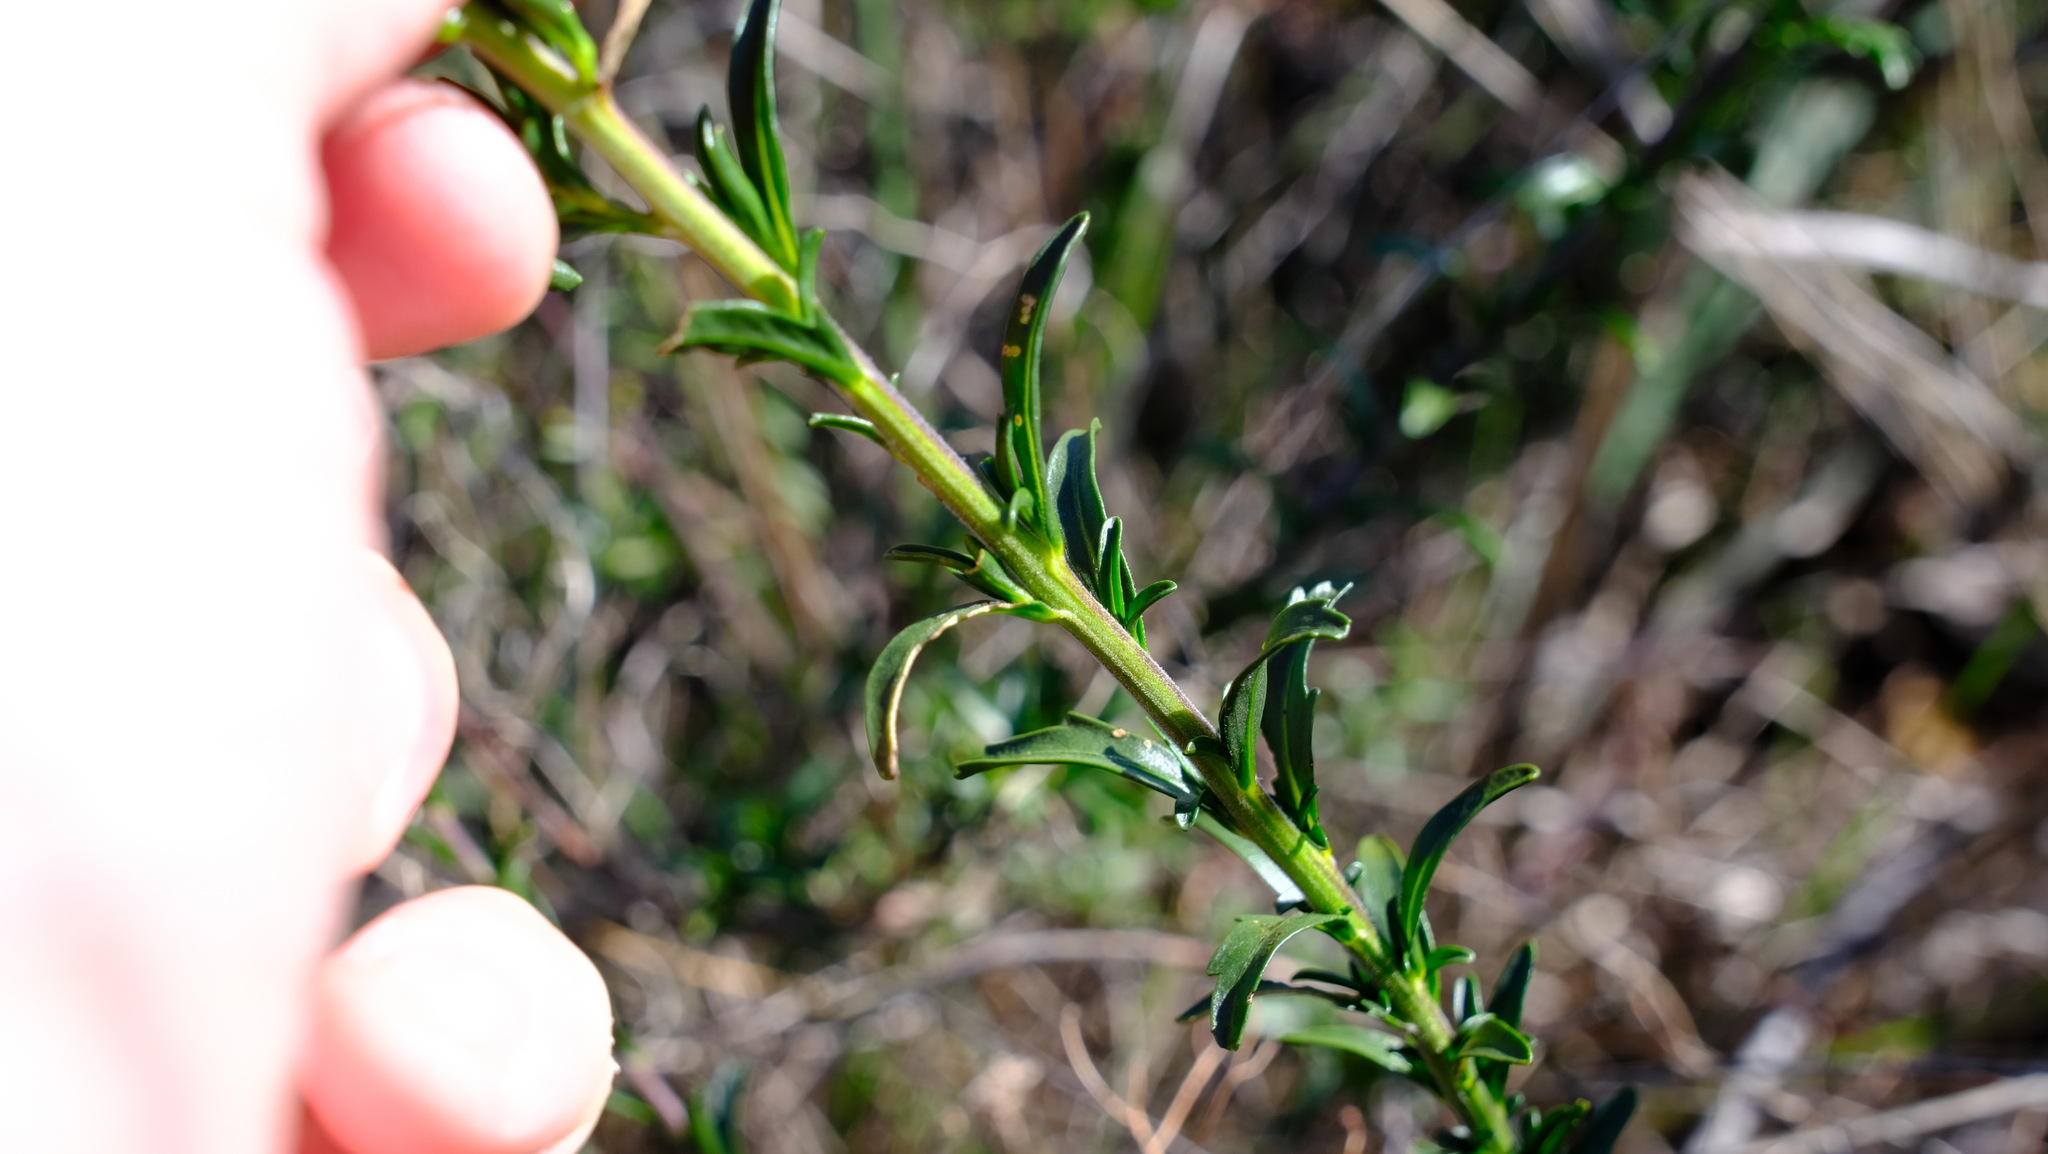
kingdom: Plantae
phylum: Tracheophyta
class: Magnoliopsida
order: Sapindales
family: Sapindaceae
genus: Diplopeltis
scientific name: Diplopeltis huegelii
